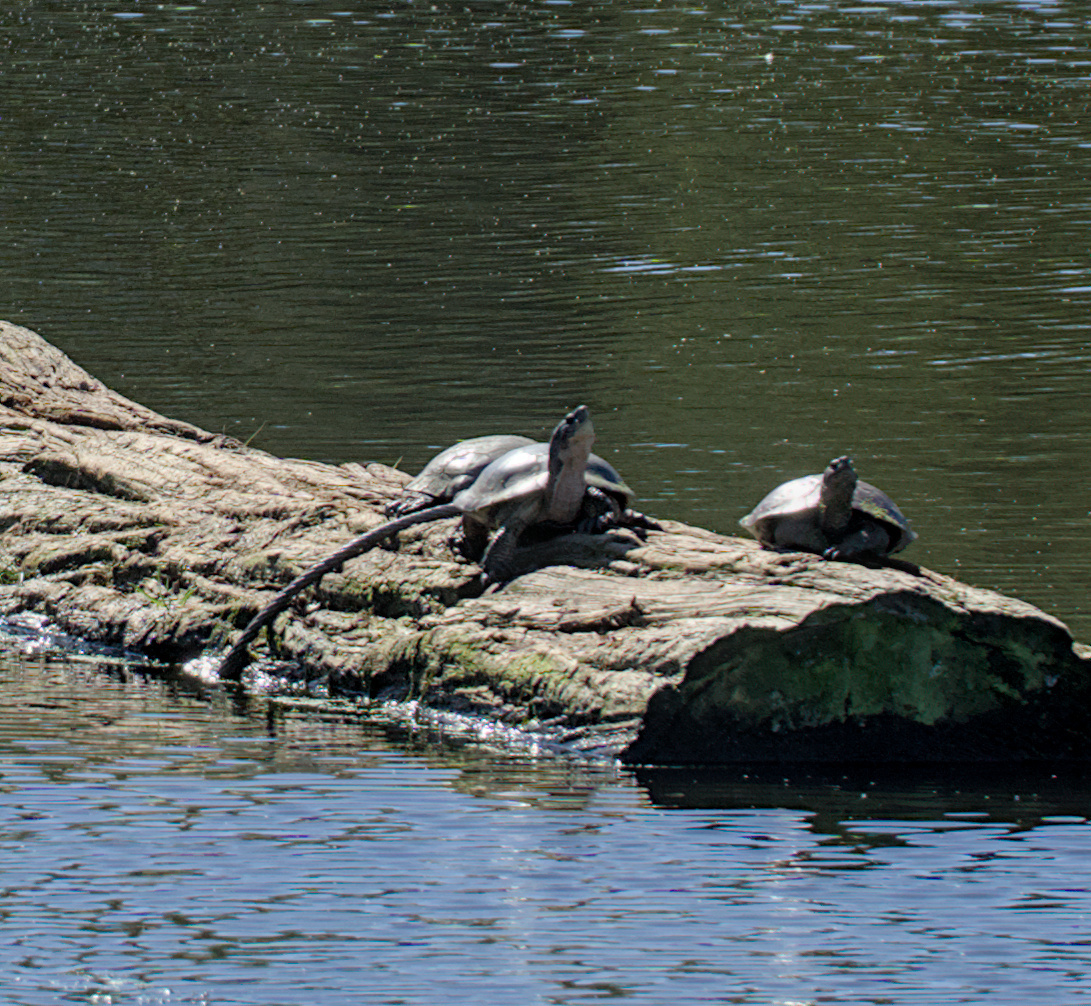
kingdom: Animalia
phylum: Chordata
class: Testudines
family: Emydidae
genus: Actinemys
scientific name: Actinemys marmorata
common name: Western pond turtle
